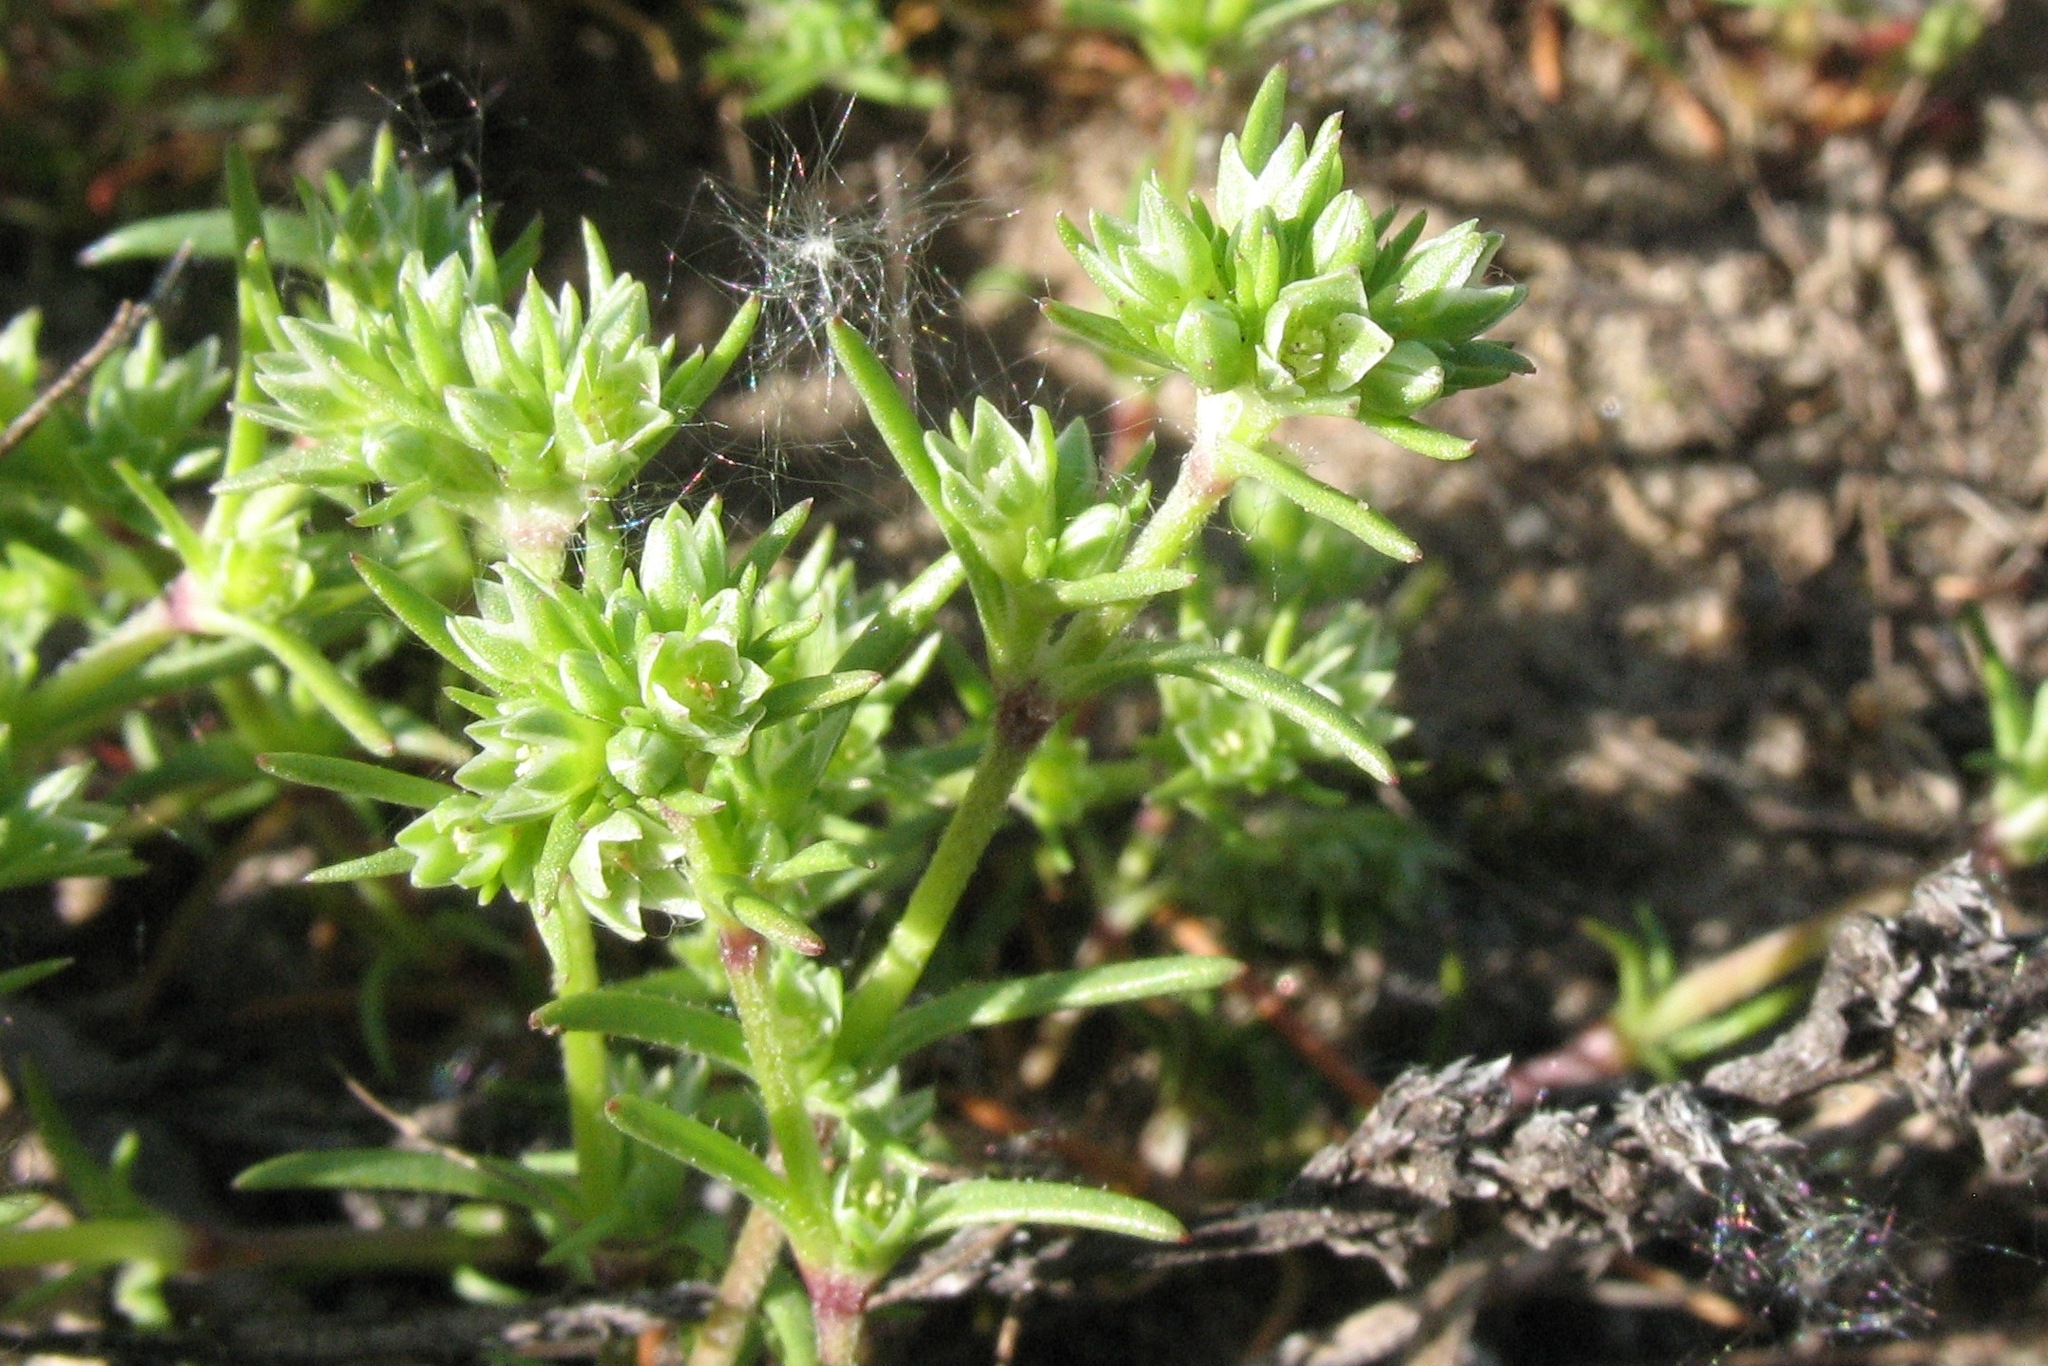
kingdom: Plantae
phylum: Tracheophyta
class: Magnoliopsida
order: Caryophyllales
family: Caryophyllaceae
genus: Scleranthus
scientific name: Scleranthus annuus
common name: Annual knawel
